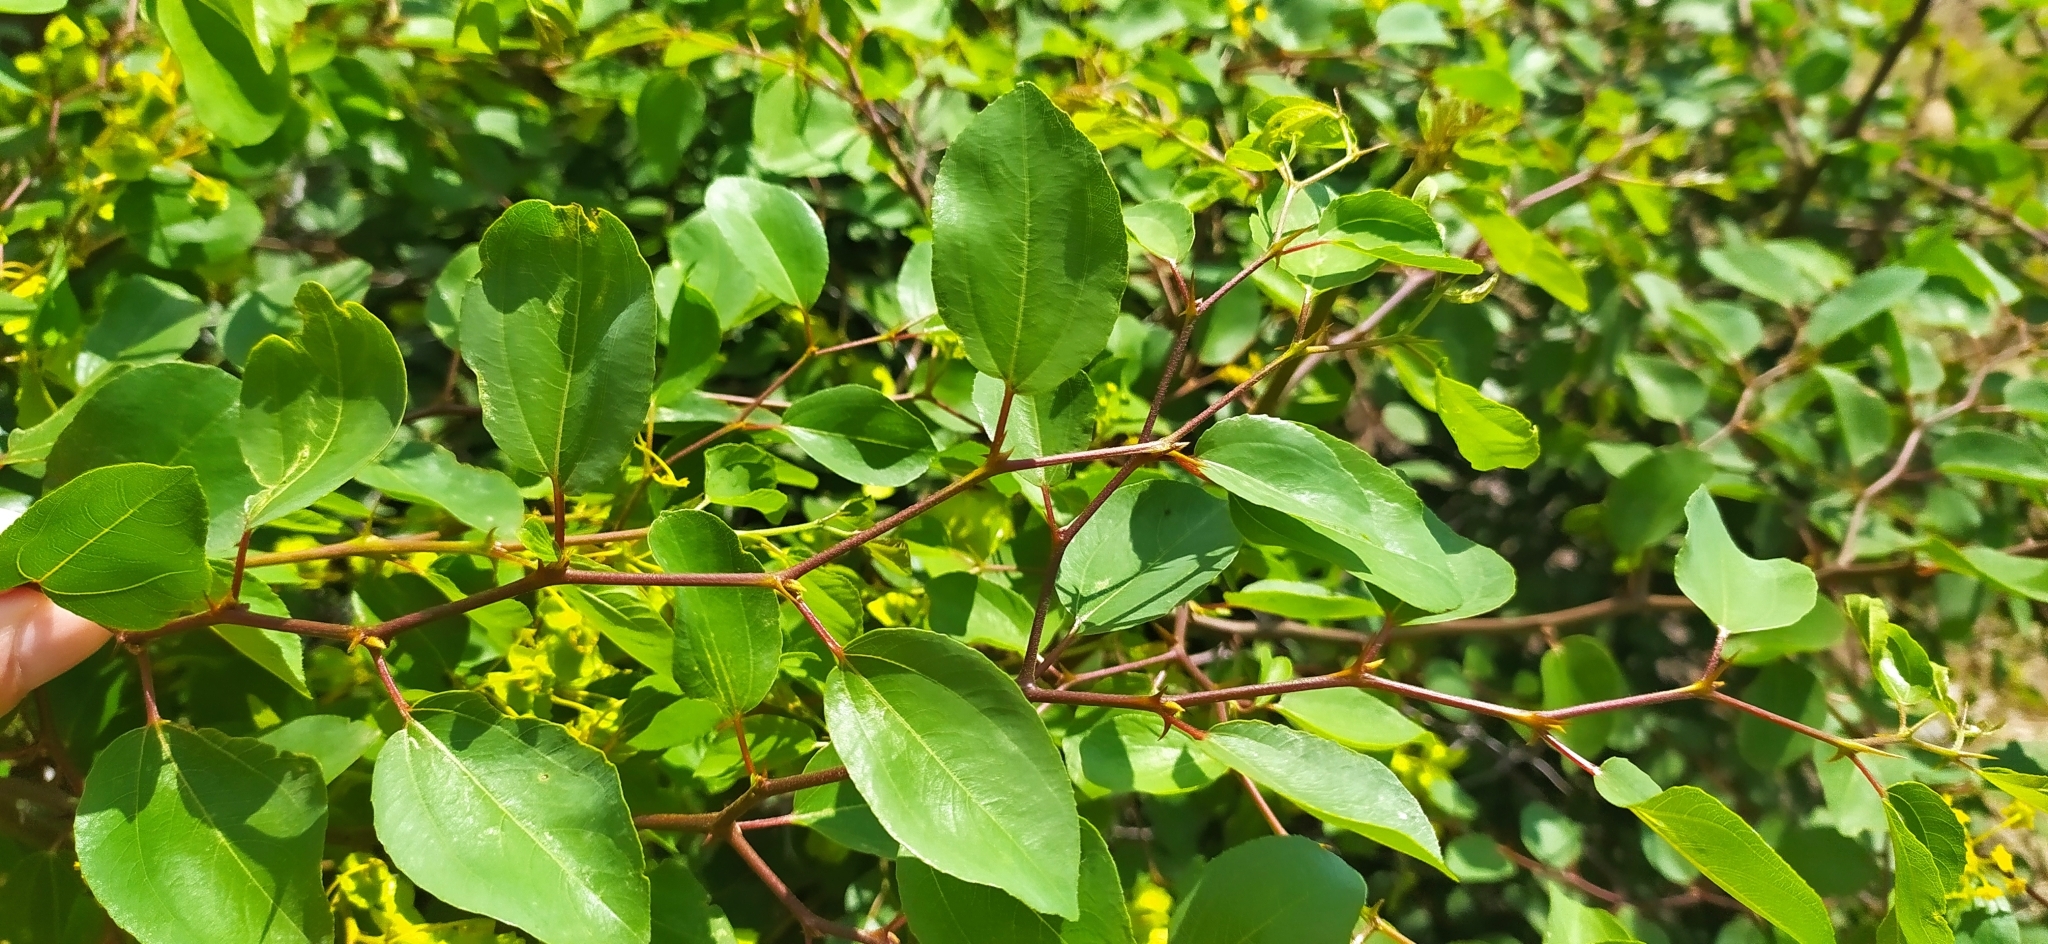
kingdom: Plantae
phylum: Tracheophyta
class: Magnoliopsida
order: Rosales
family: Rhamnaceae
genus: Paliurus
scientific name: Paliurus spina-christi
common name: Jeruselem thorn
